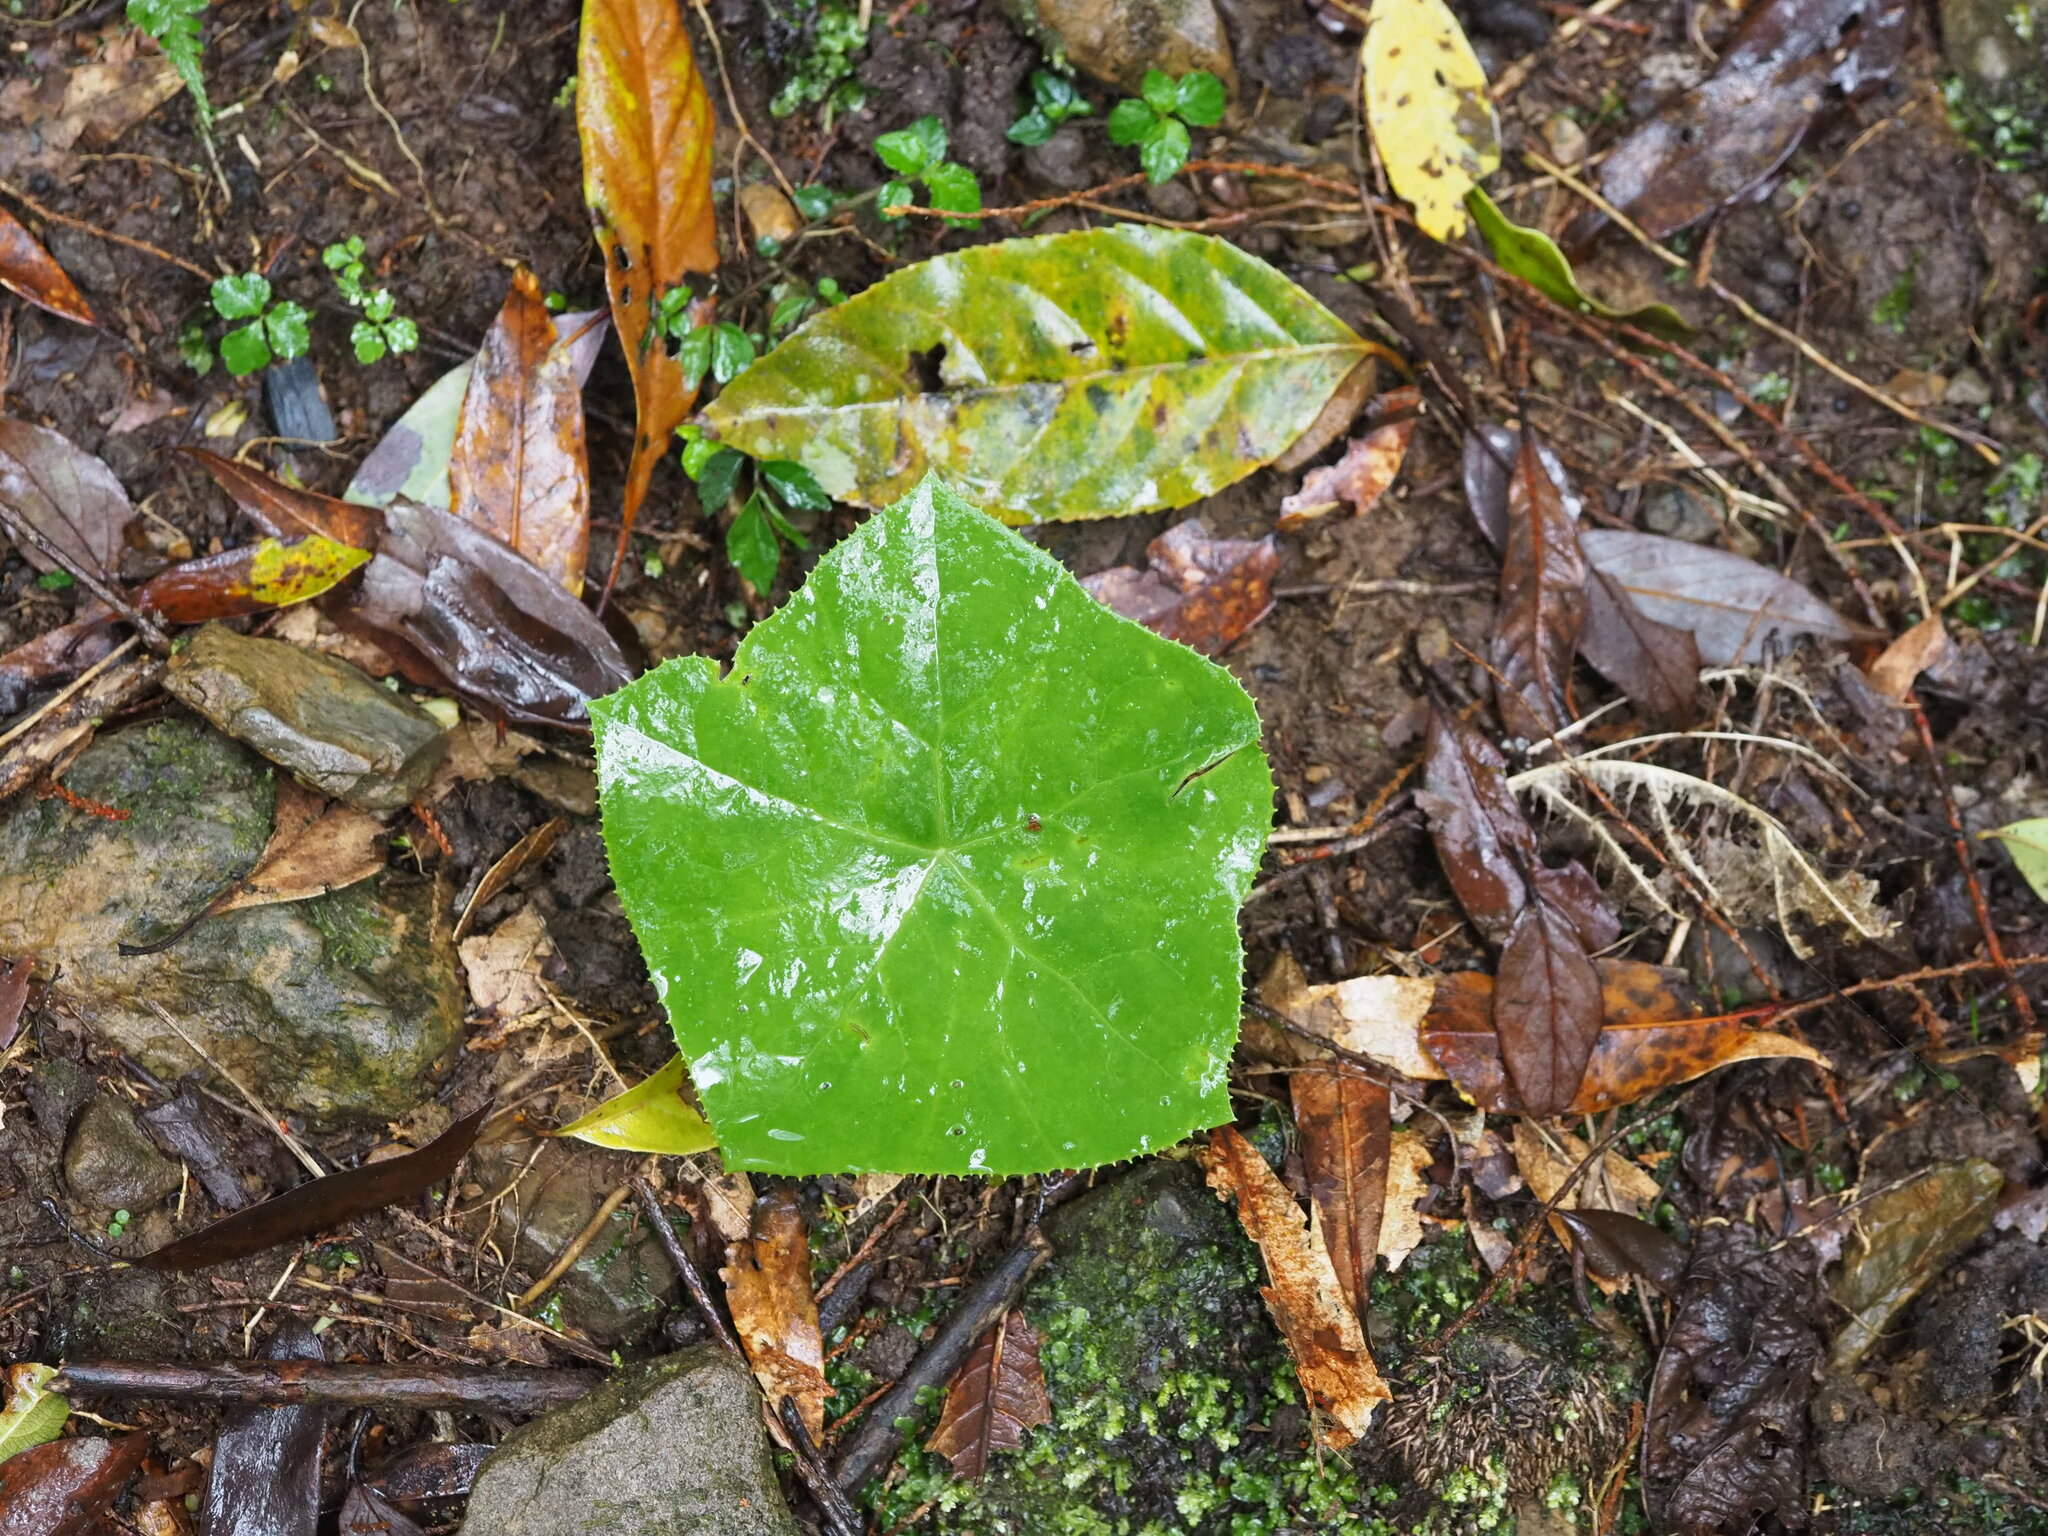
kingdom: Plantae
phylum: Tracheophyta
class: Magnoliopsida
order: Ranunculales
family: Berberidaceae
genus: Dysosma
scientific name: Dysosma pleiantha
